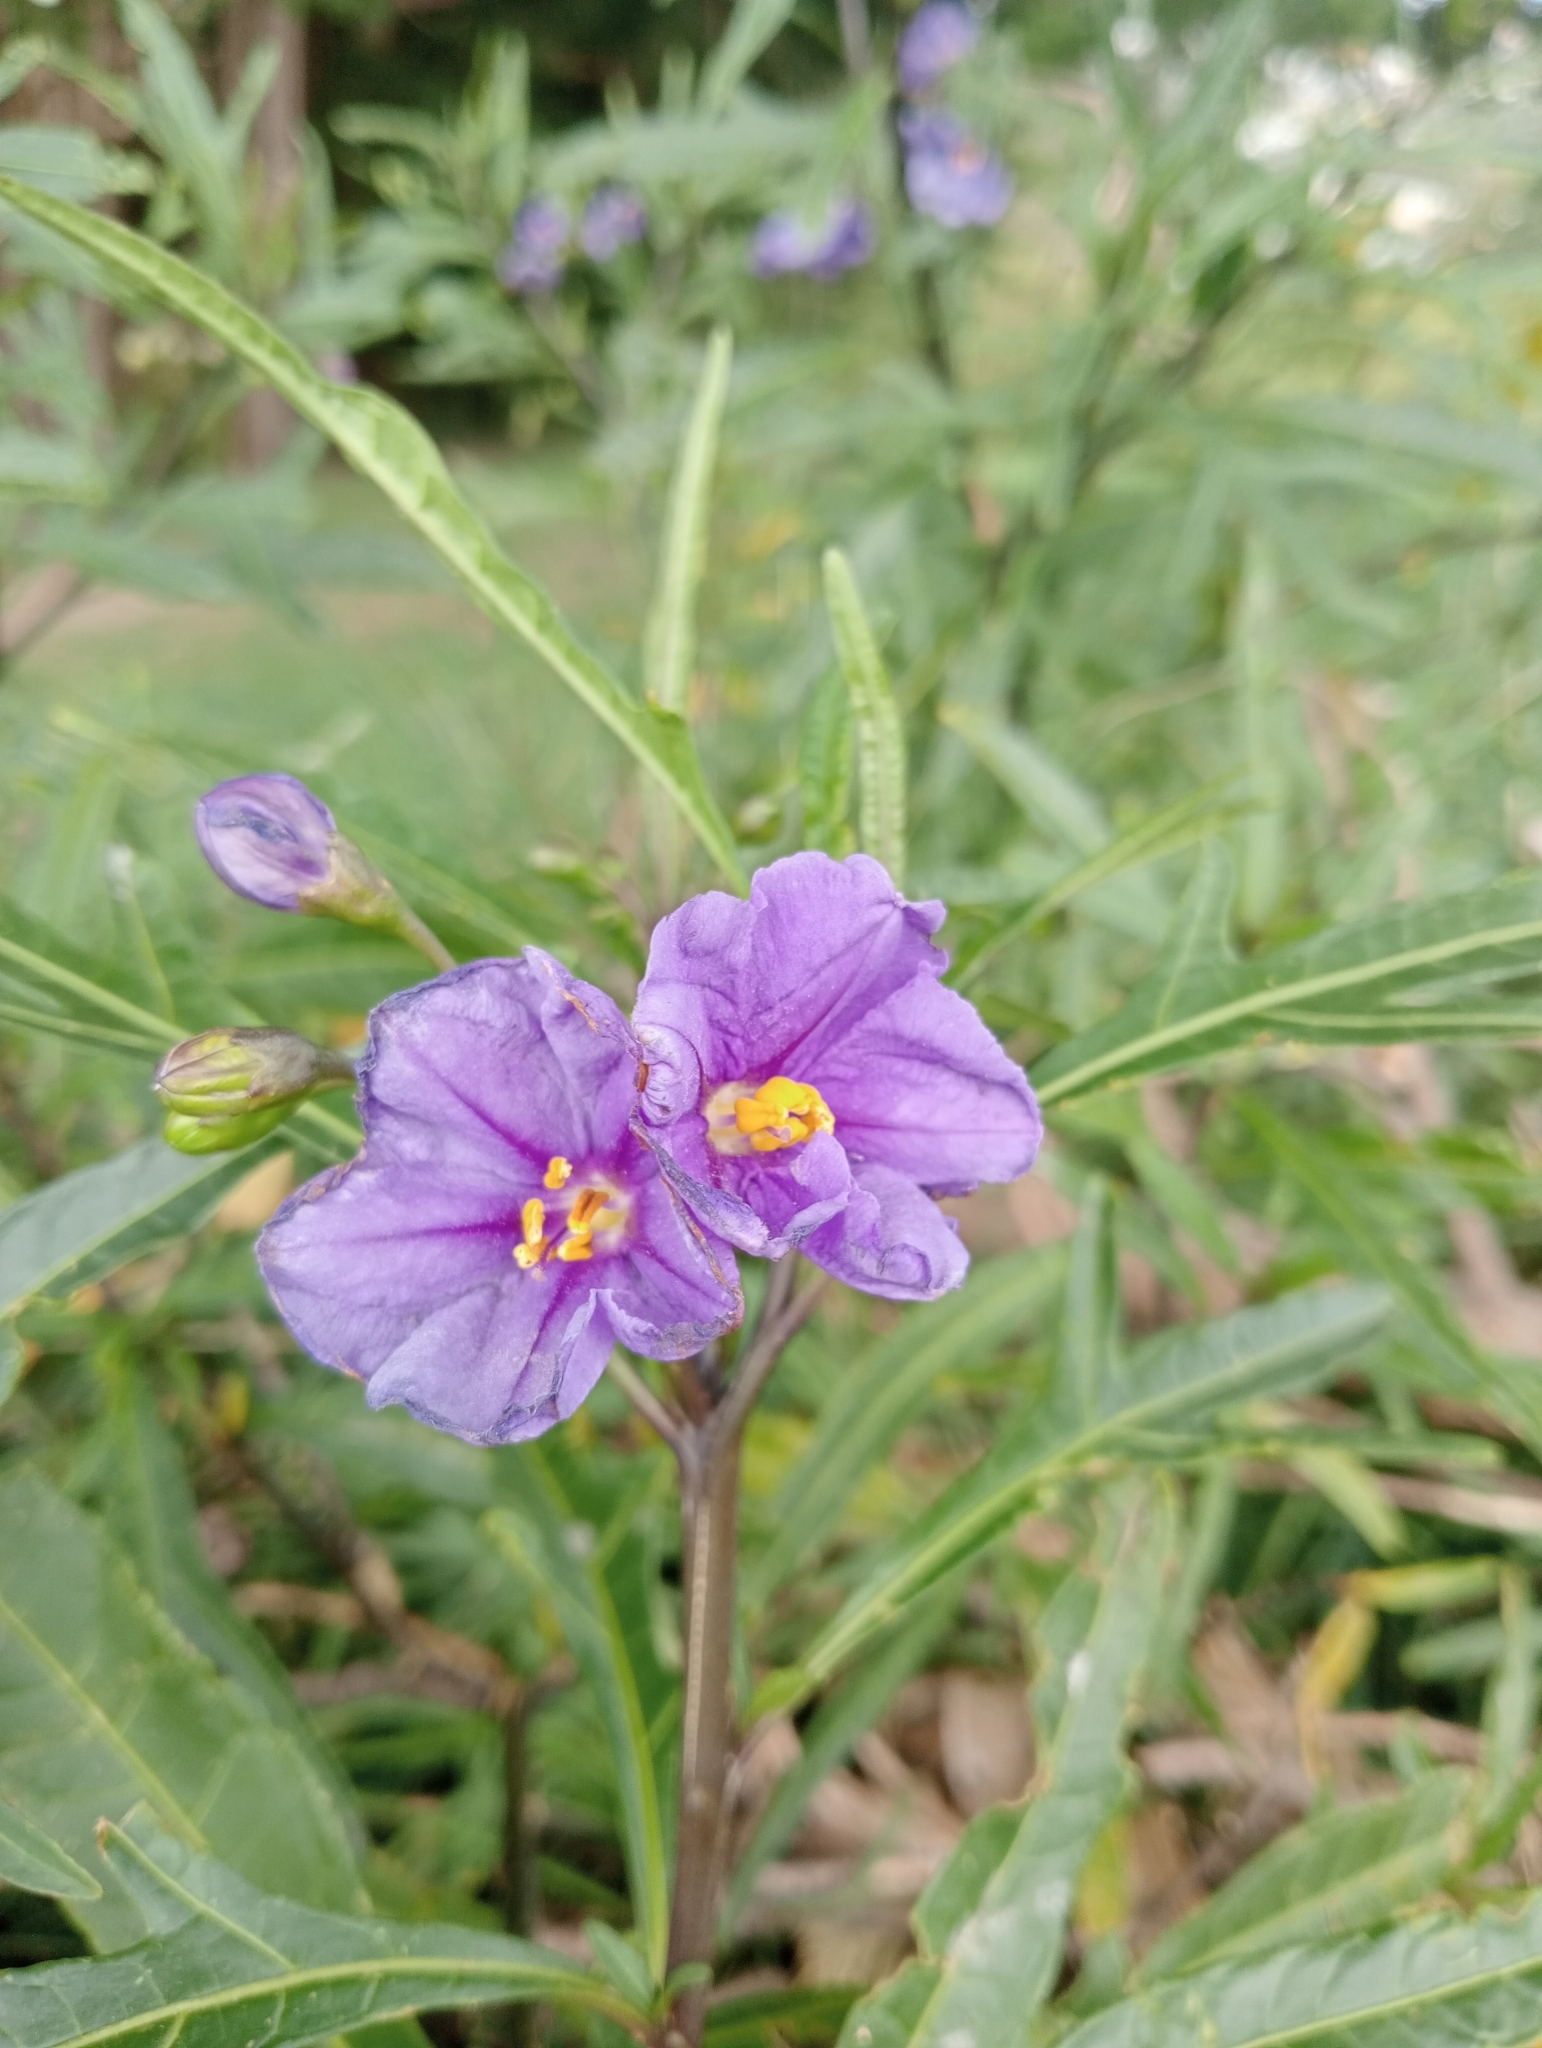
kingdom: Plantae
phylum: Tracheophyta
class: Magnoliopsida
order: Solanales
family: Solanaceae
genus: Solanum
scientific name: Solanum laciniatum
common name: Kangaroo-apple
